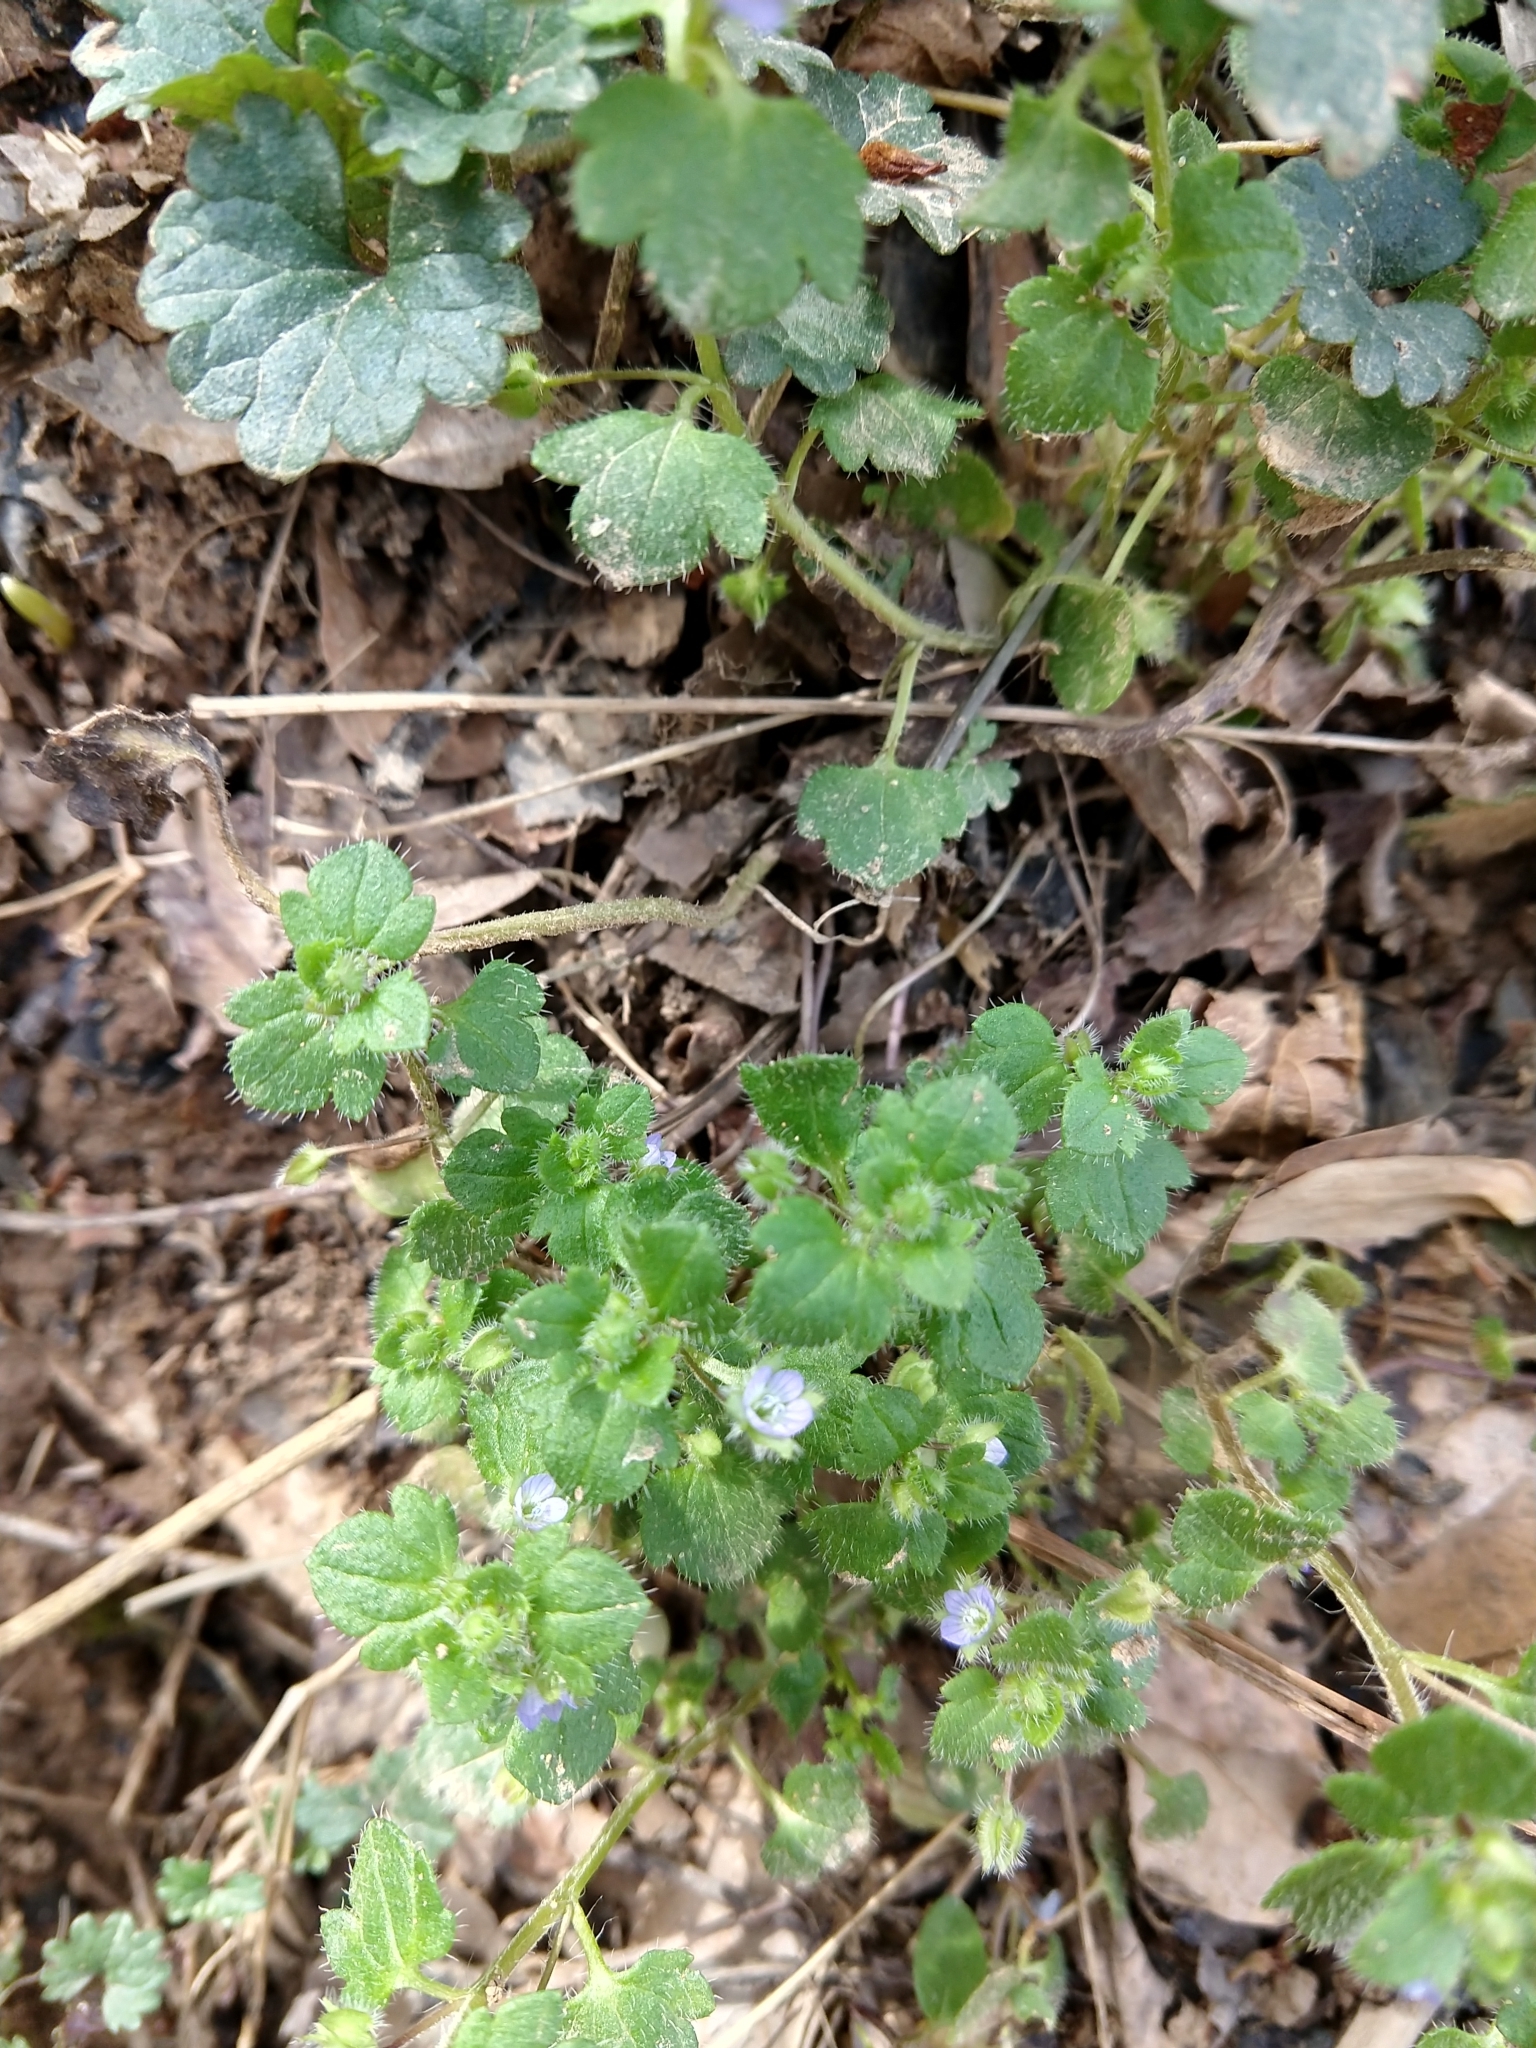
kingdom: Plantae
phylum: Tracheophyta
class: Magnoliopsida
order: Lamiales
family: Plantaginaceae
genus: Veronica
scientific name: Veronica hederifolia
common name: Ivy-leaved speedwell
